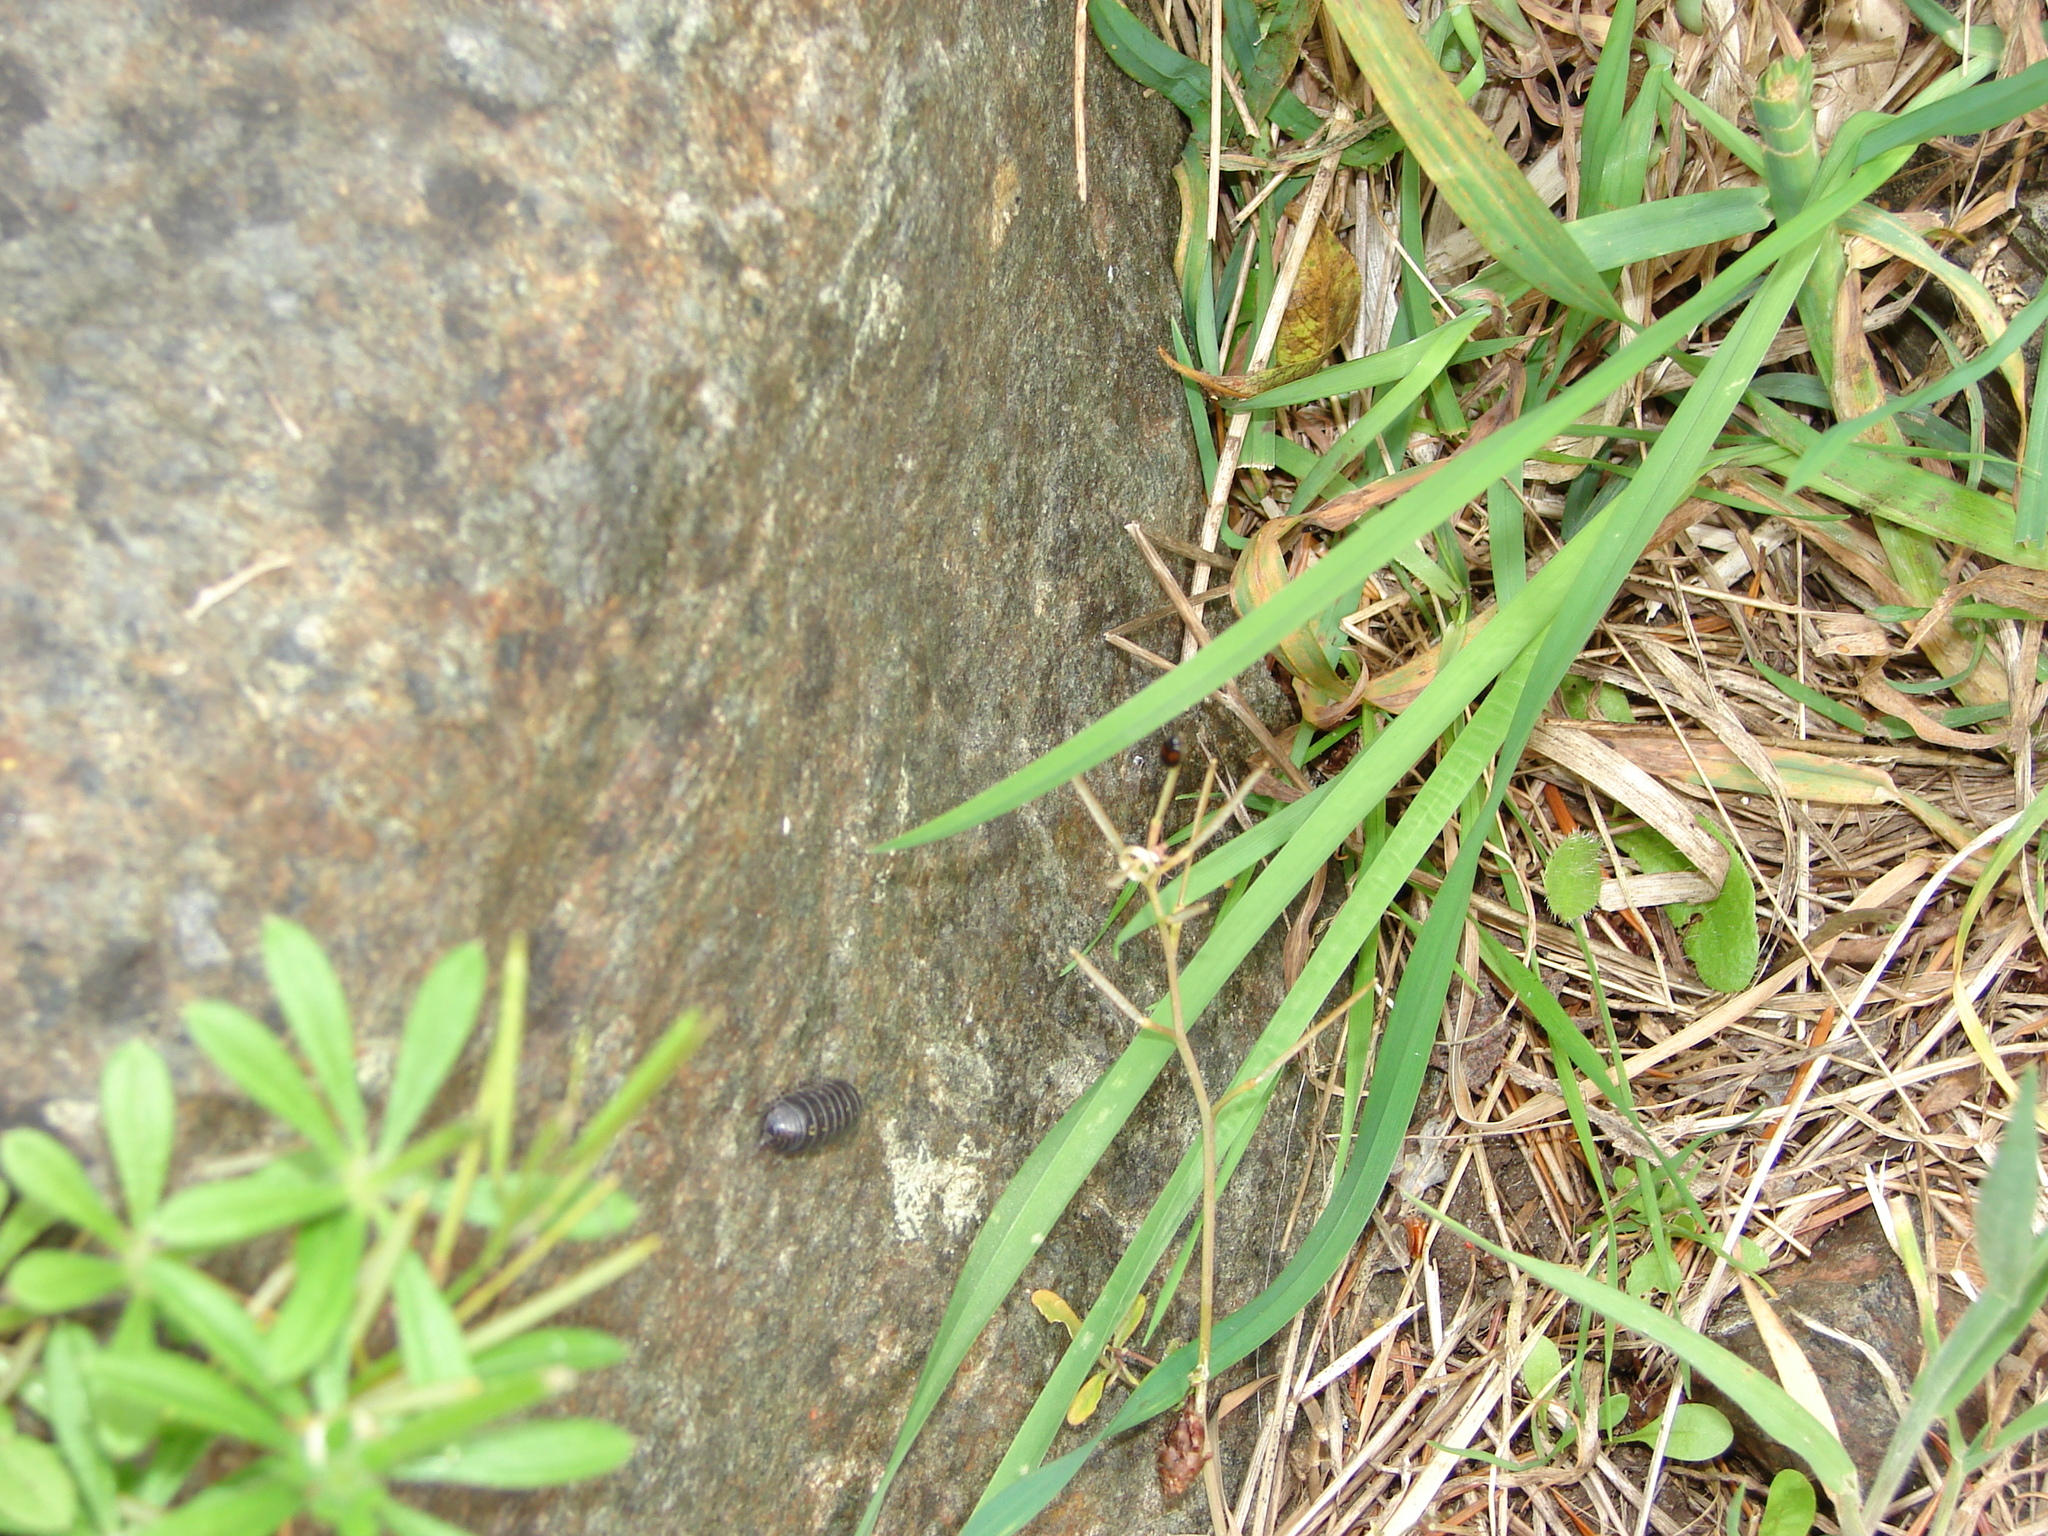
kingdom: Animalia
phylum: Arthropoda
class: Malacostraca
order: Isopoda
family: Armadillidiidae
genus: Armadillidium
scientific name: Armadillidium vulgare
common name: Common pill woodlouse
